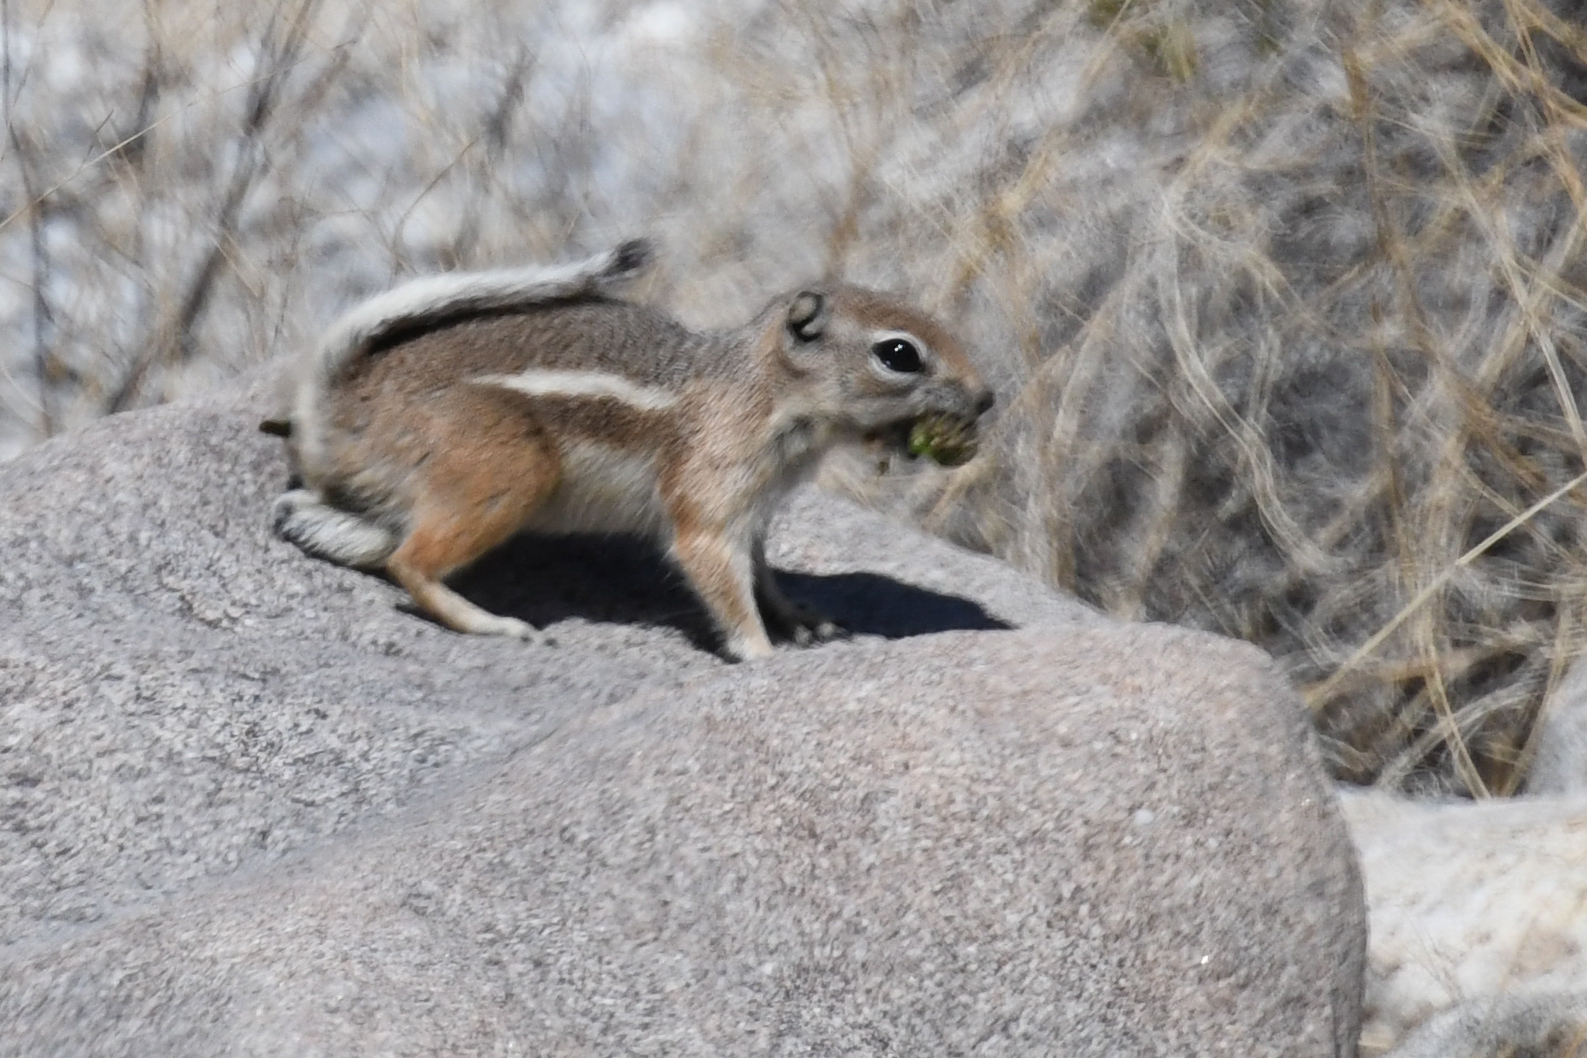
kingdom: Animalia
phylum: Chordata
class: Mammalia
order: Rodentia
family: Sciuridae
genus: Ammospermophilus
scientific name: Ammospermophilus leucurus
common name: White-tailed antelope squirrel
